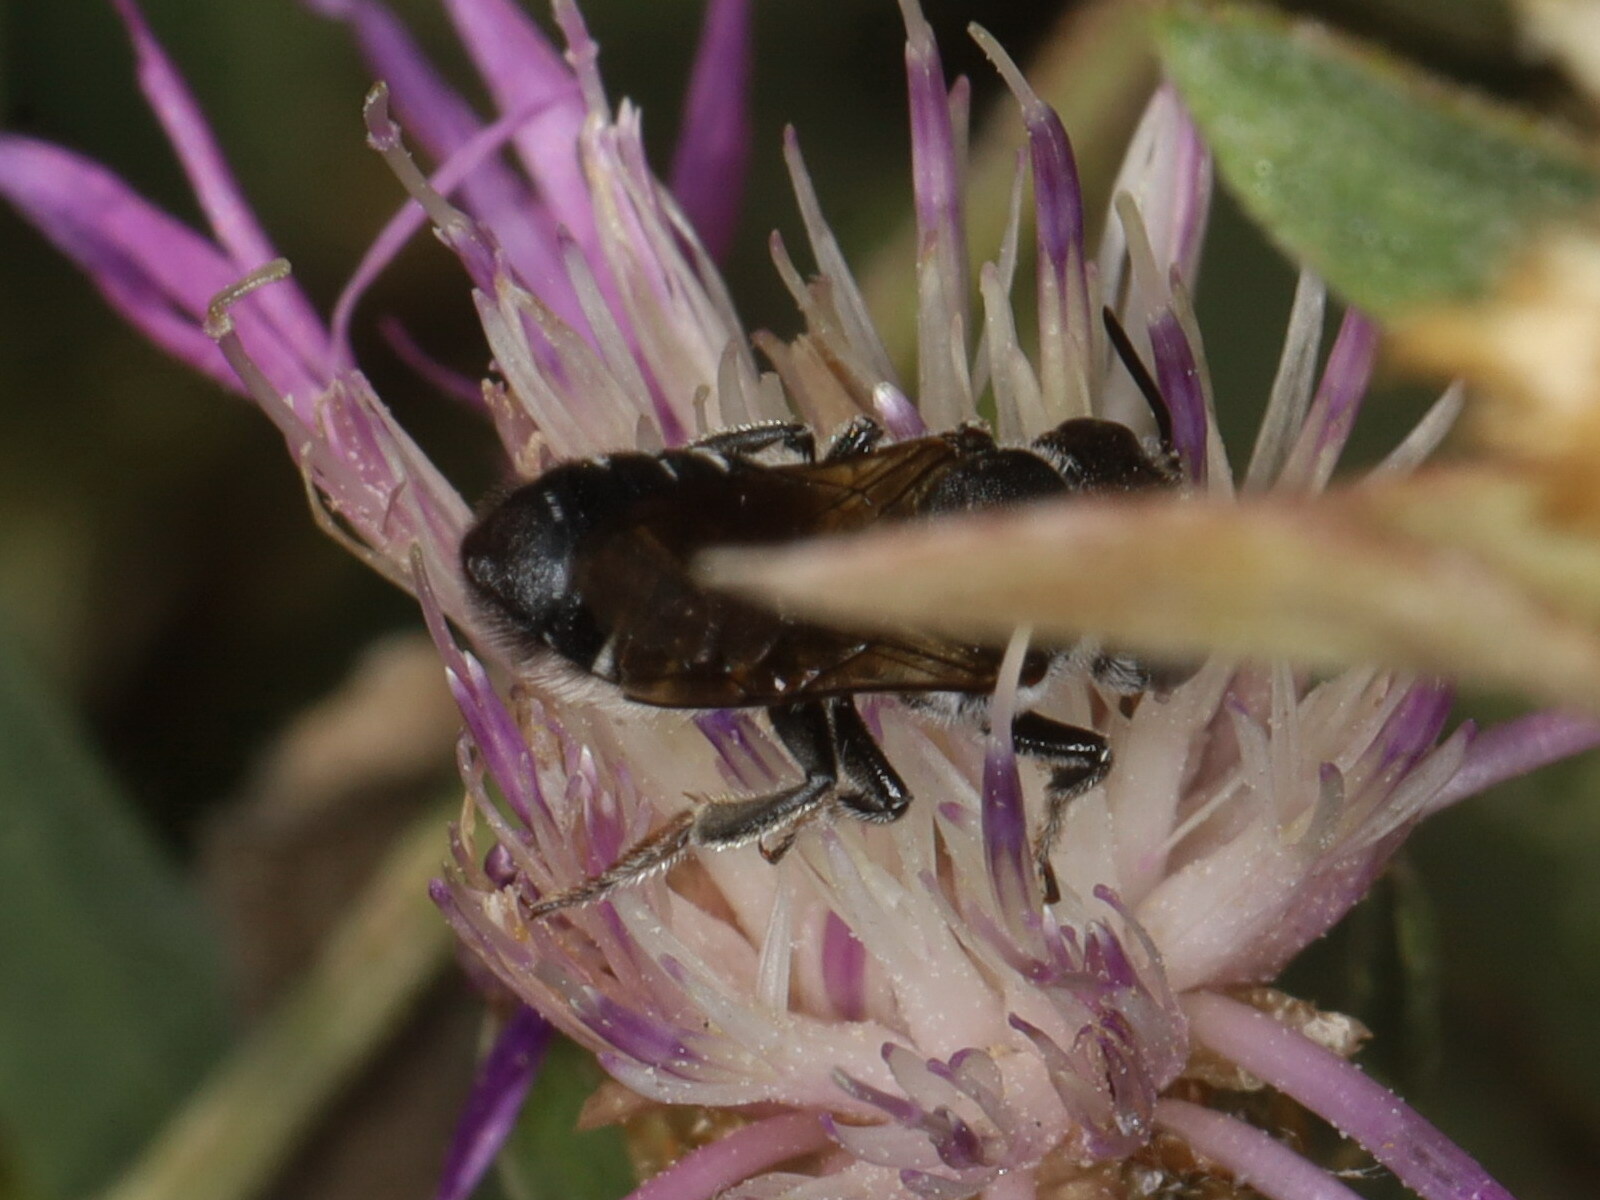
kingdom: Animalia
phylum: Arthropoda
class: Insecta
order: Hymenoptera
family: Megachilidae
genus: Megachile
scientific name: Megachile apicalis
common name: Apical leafcutter bee
